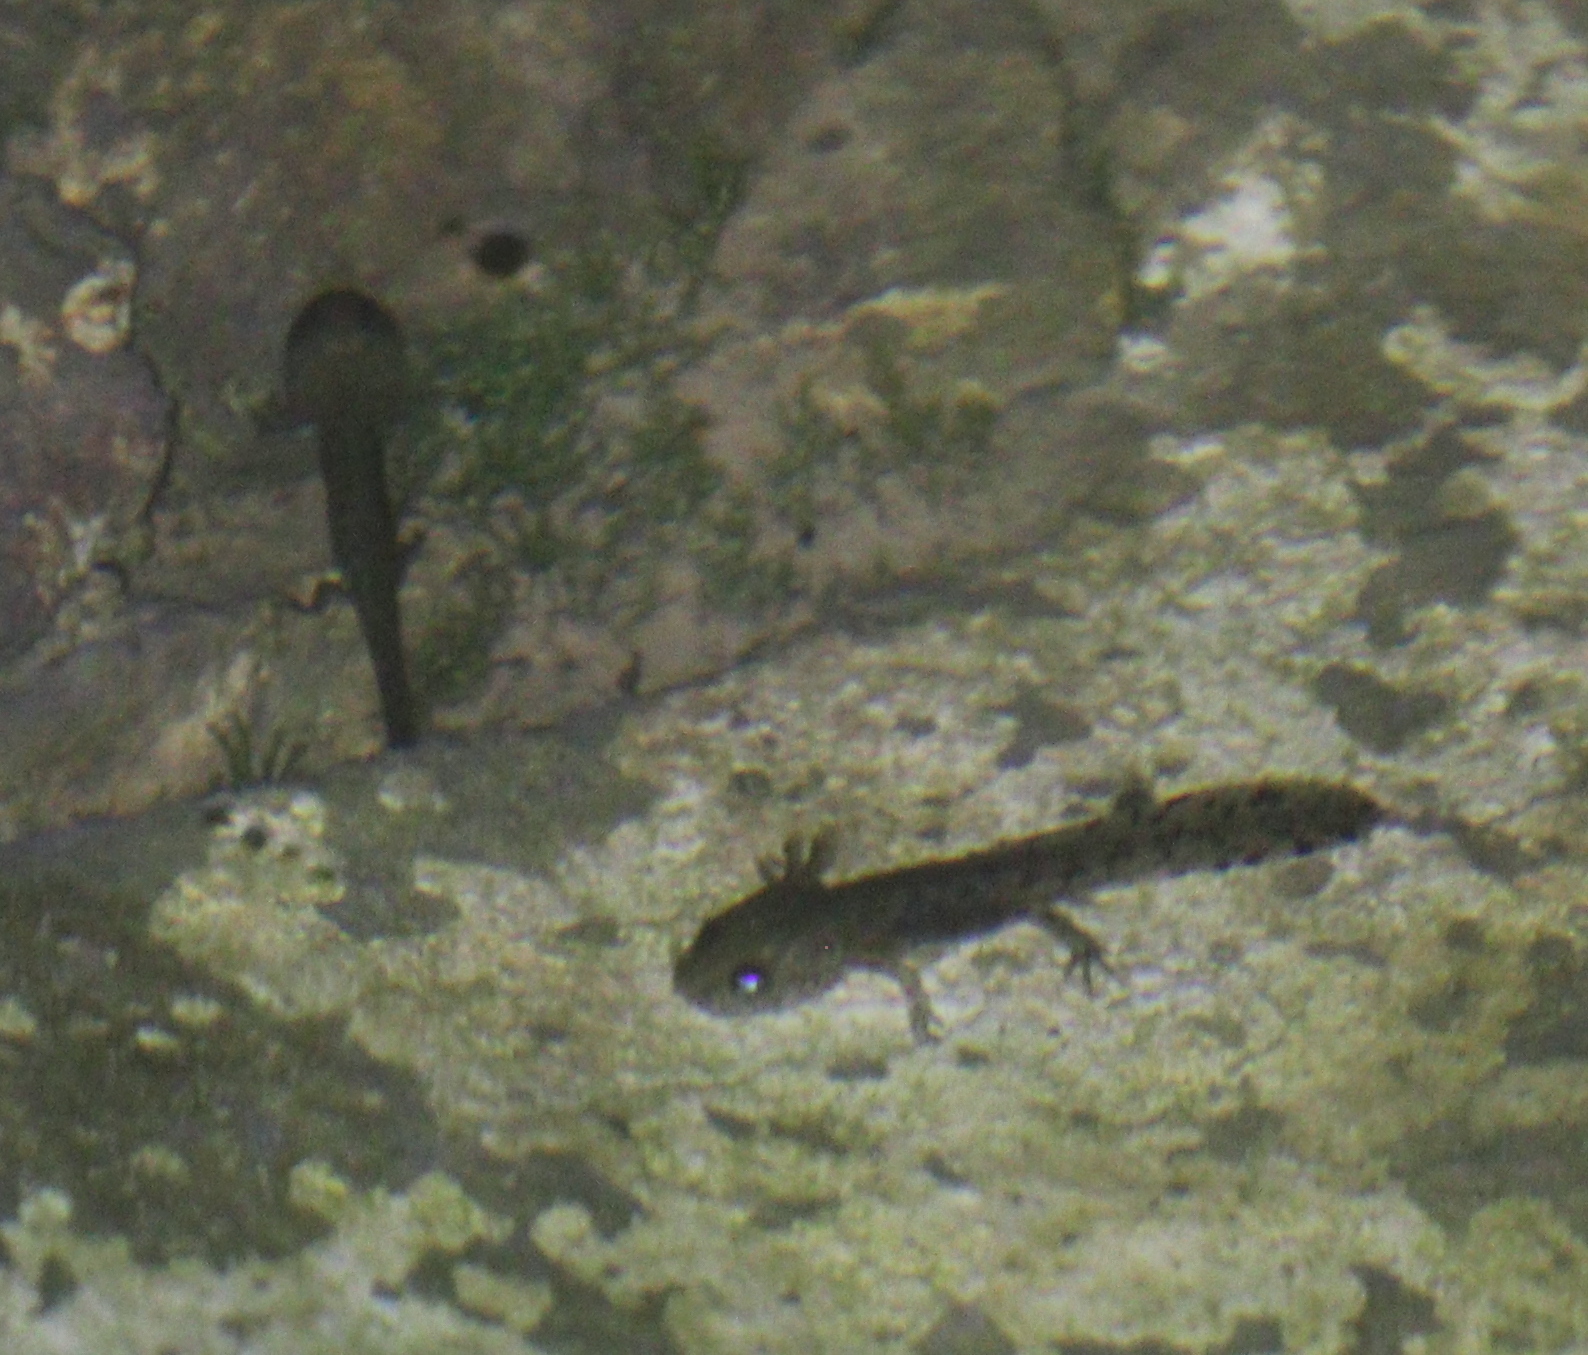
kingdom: Animalia
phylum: Chordata
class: Amphibia
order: Caudata
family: Salamandridae
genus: Salamandra
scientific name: Salamandra salamandra
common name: Fire salamander
